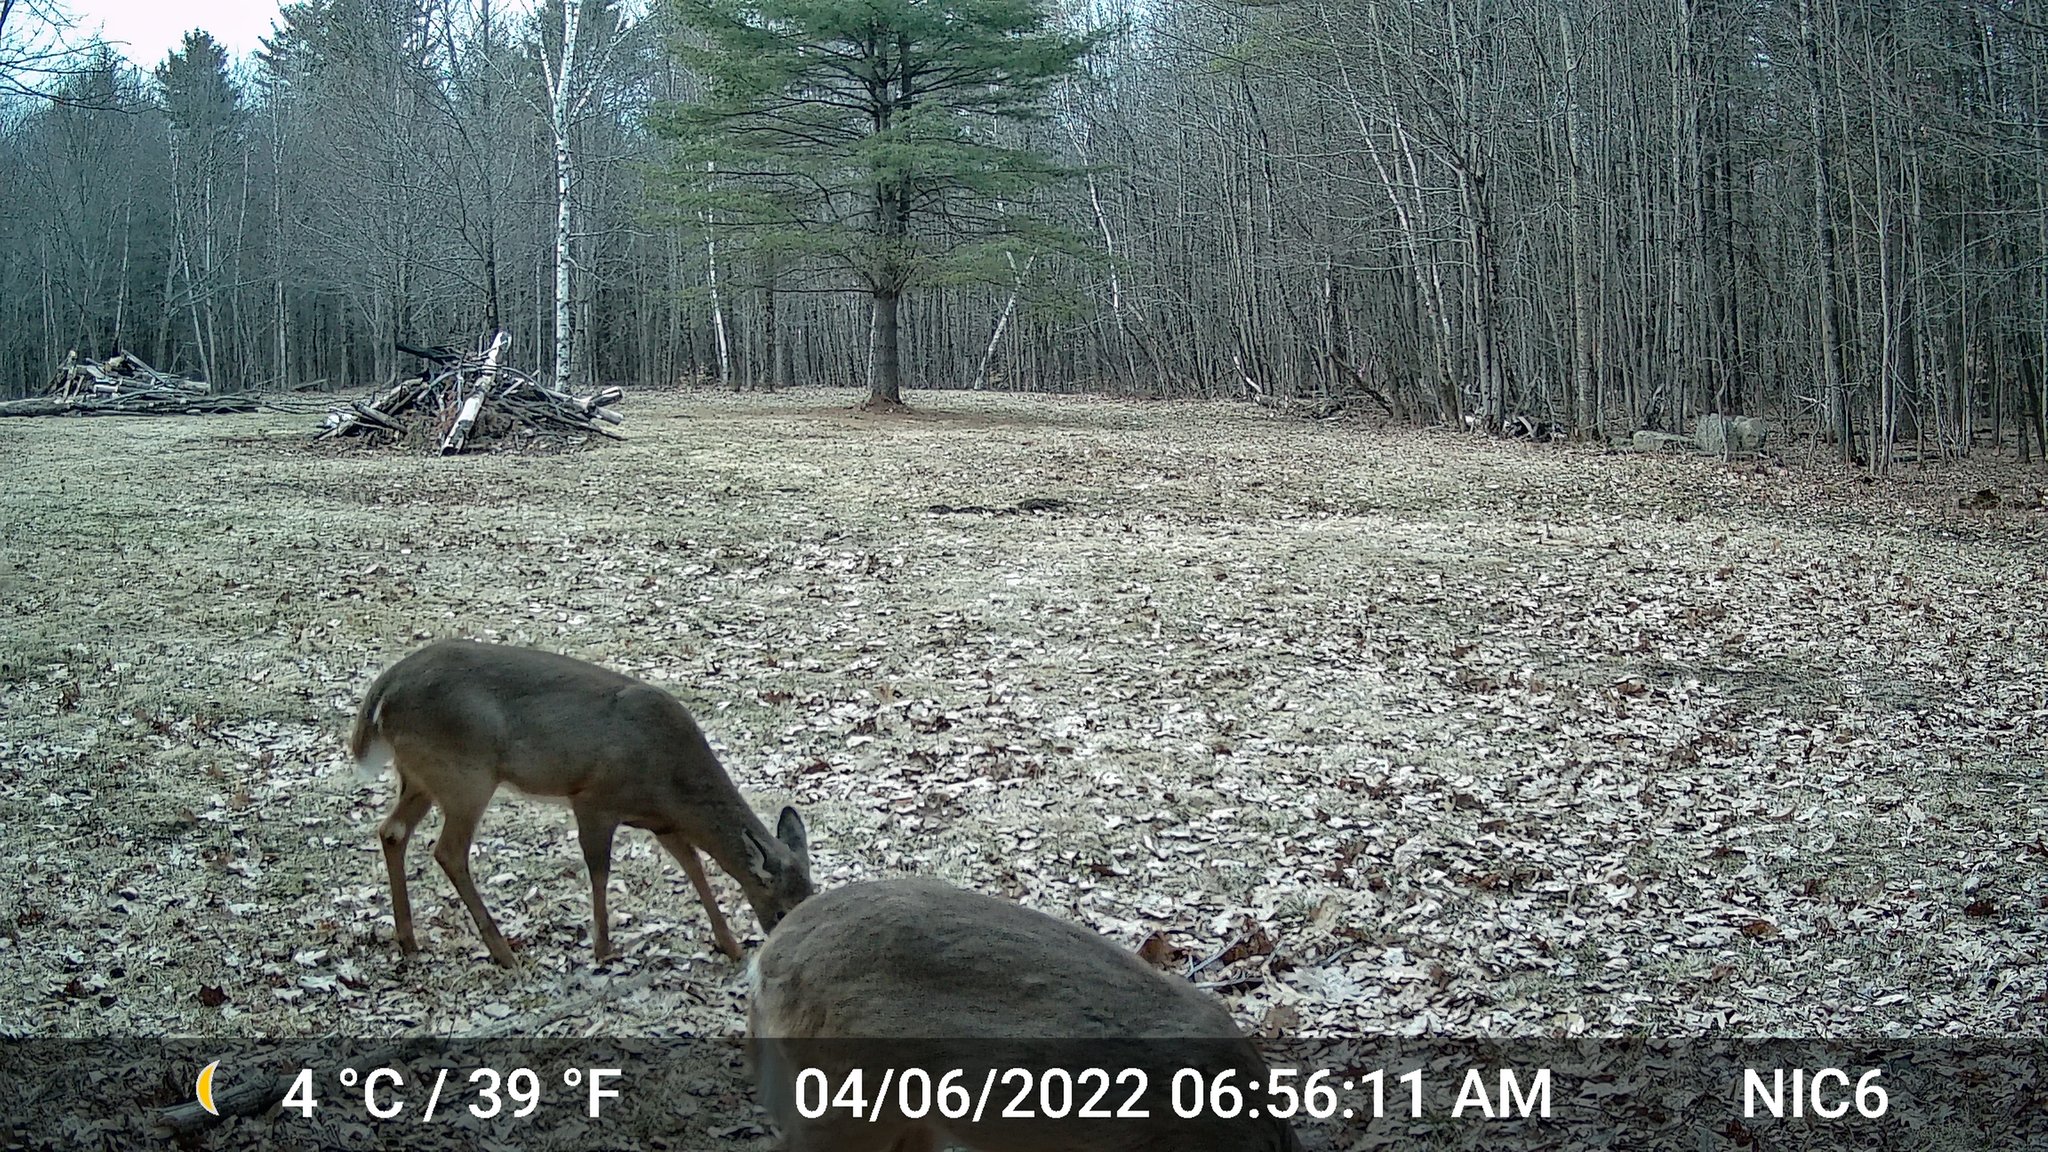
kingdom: Animalia
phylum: Chordata
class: Mammalia
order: Artiodactyla
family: Cervidae
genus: Odocoileus
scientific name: Odocoileus virginianus
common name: White-tailed deer
